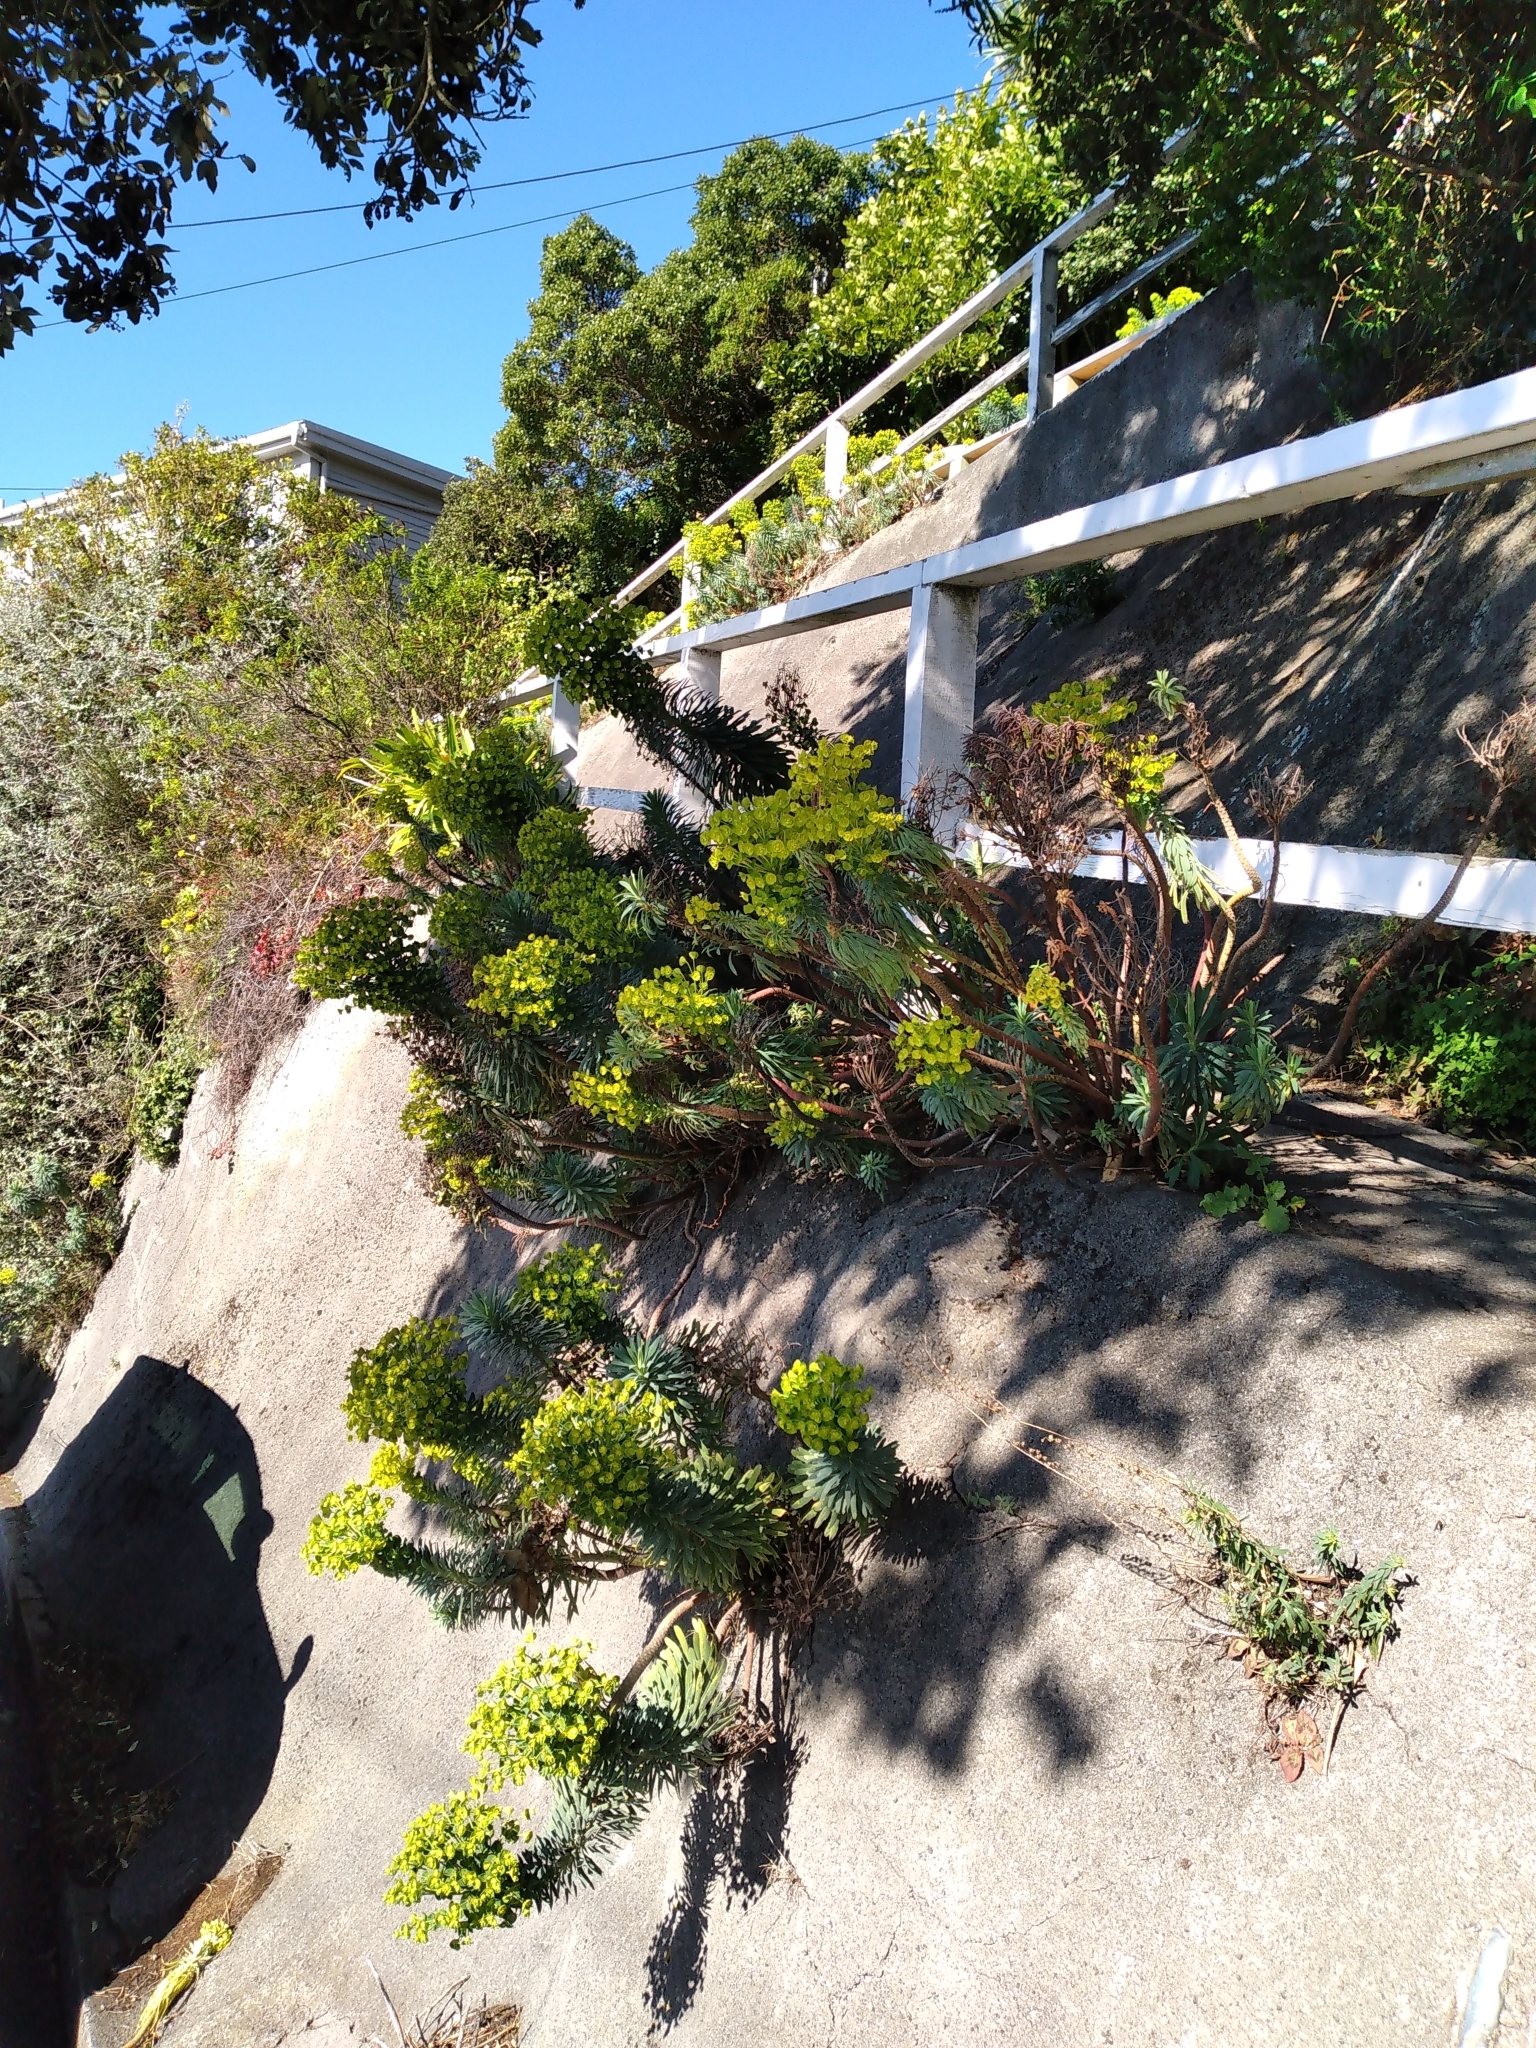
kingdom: Plantae
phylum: Tracheophyta
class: Magnoliopsida
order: Malpighiales
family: Euphorbiaceae
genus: Euphorbia
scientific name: Euphorbia characias
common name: Mediterranean spurge
